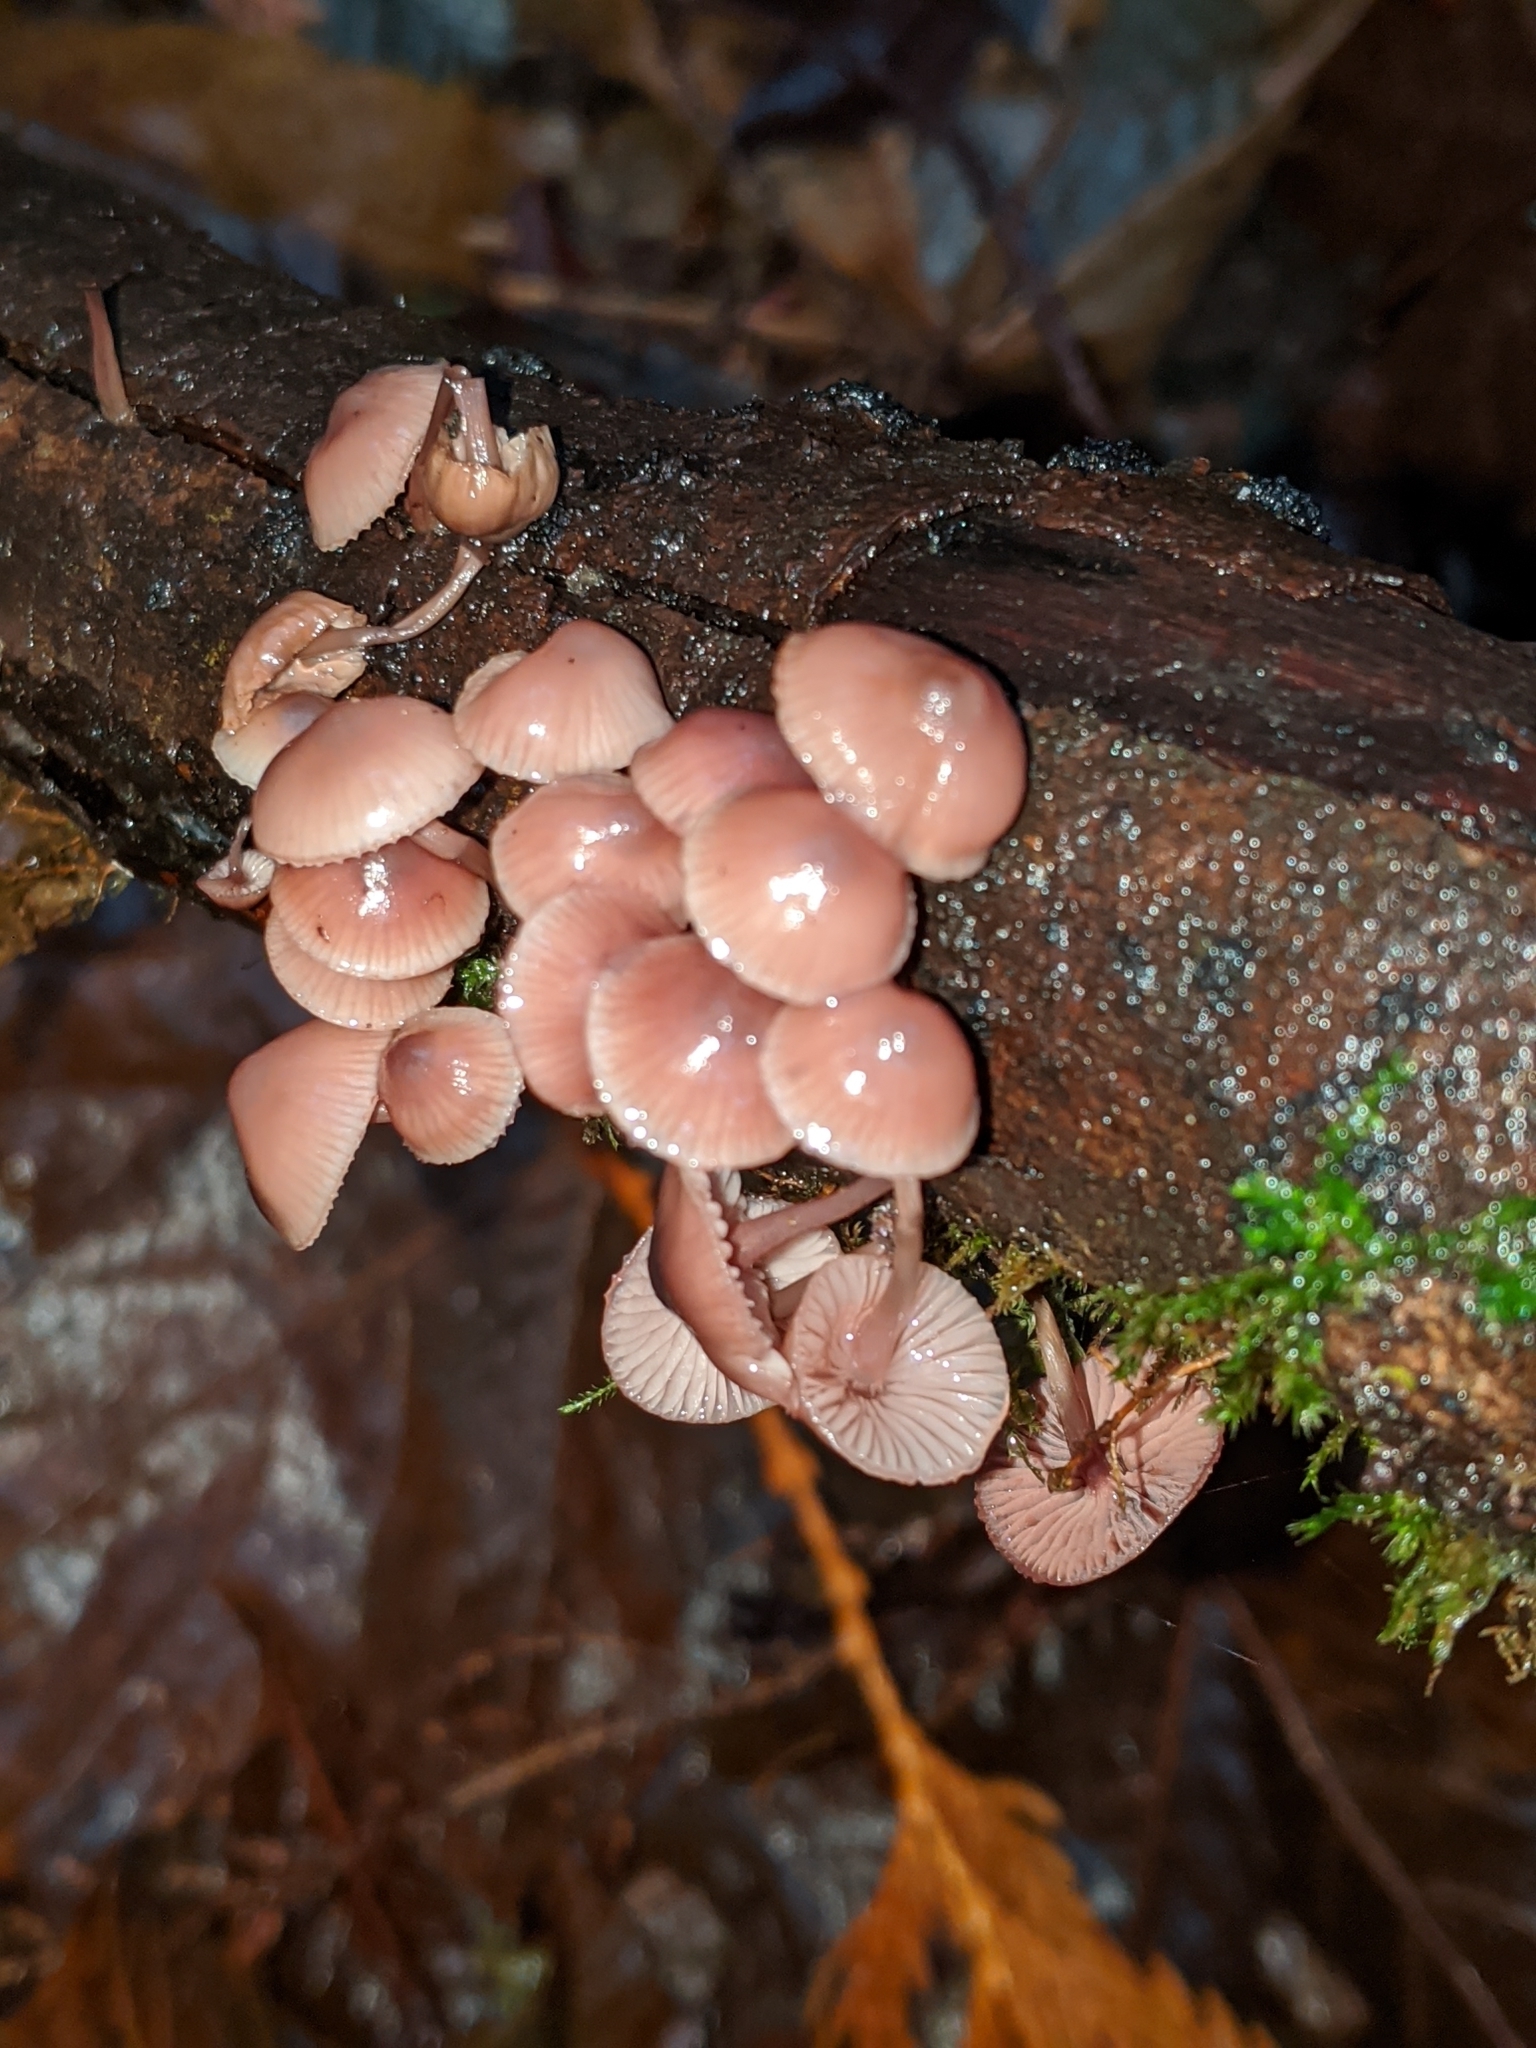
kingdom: Fungi
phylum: Basidiomycota
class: Agaricomycetes
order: Agaricales
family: Mycenaceae
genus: Mycena
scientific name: Mycena haematopus
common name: Burgundydrop bonnet
